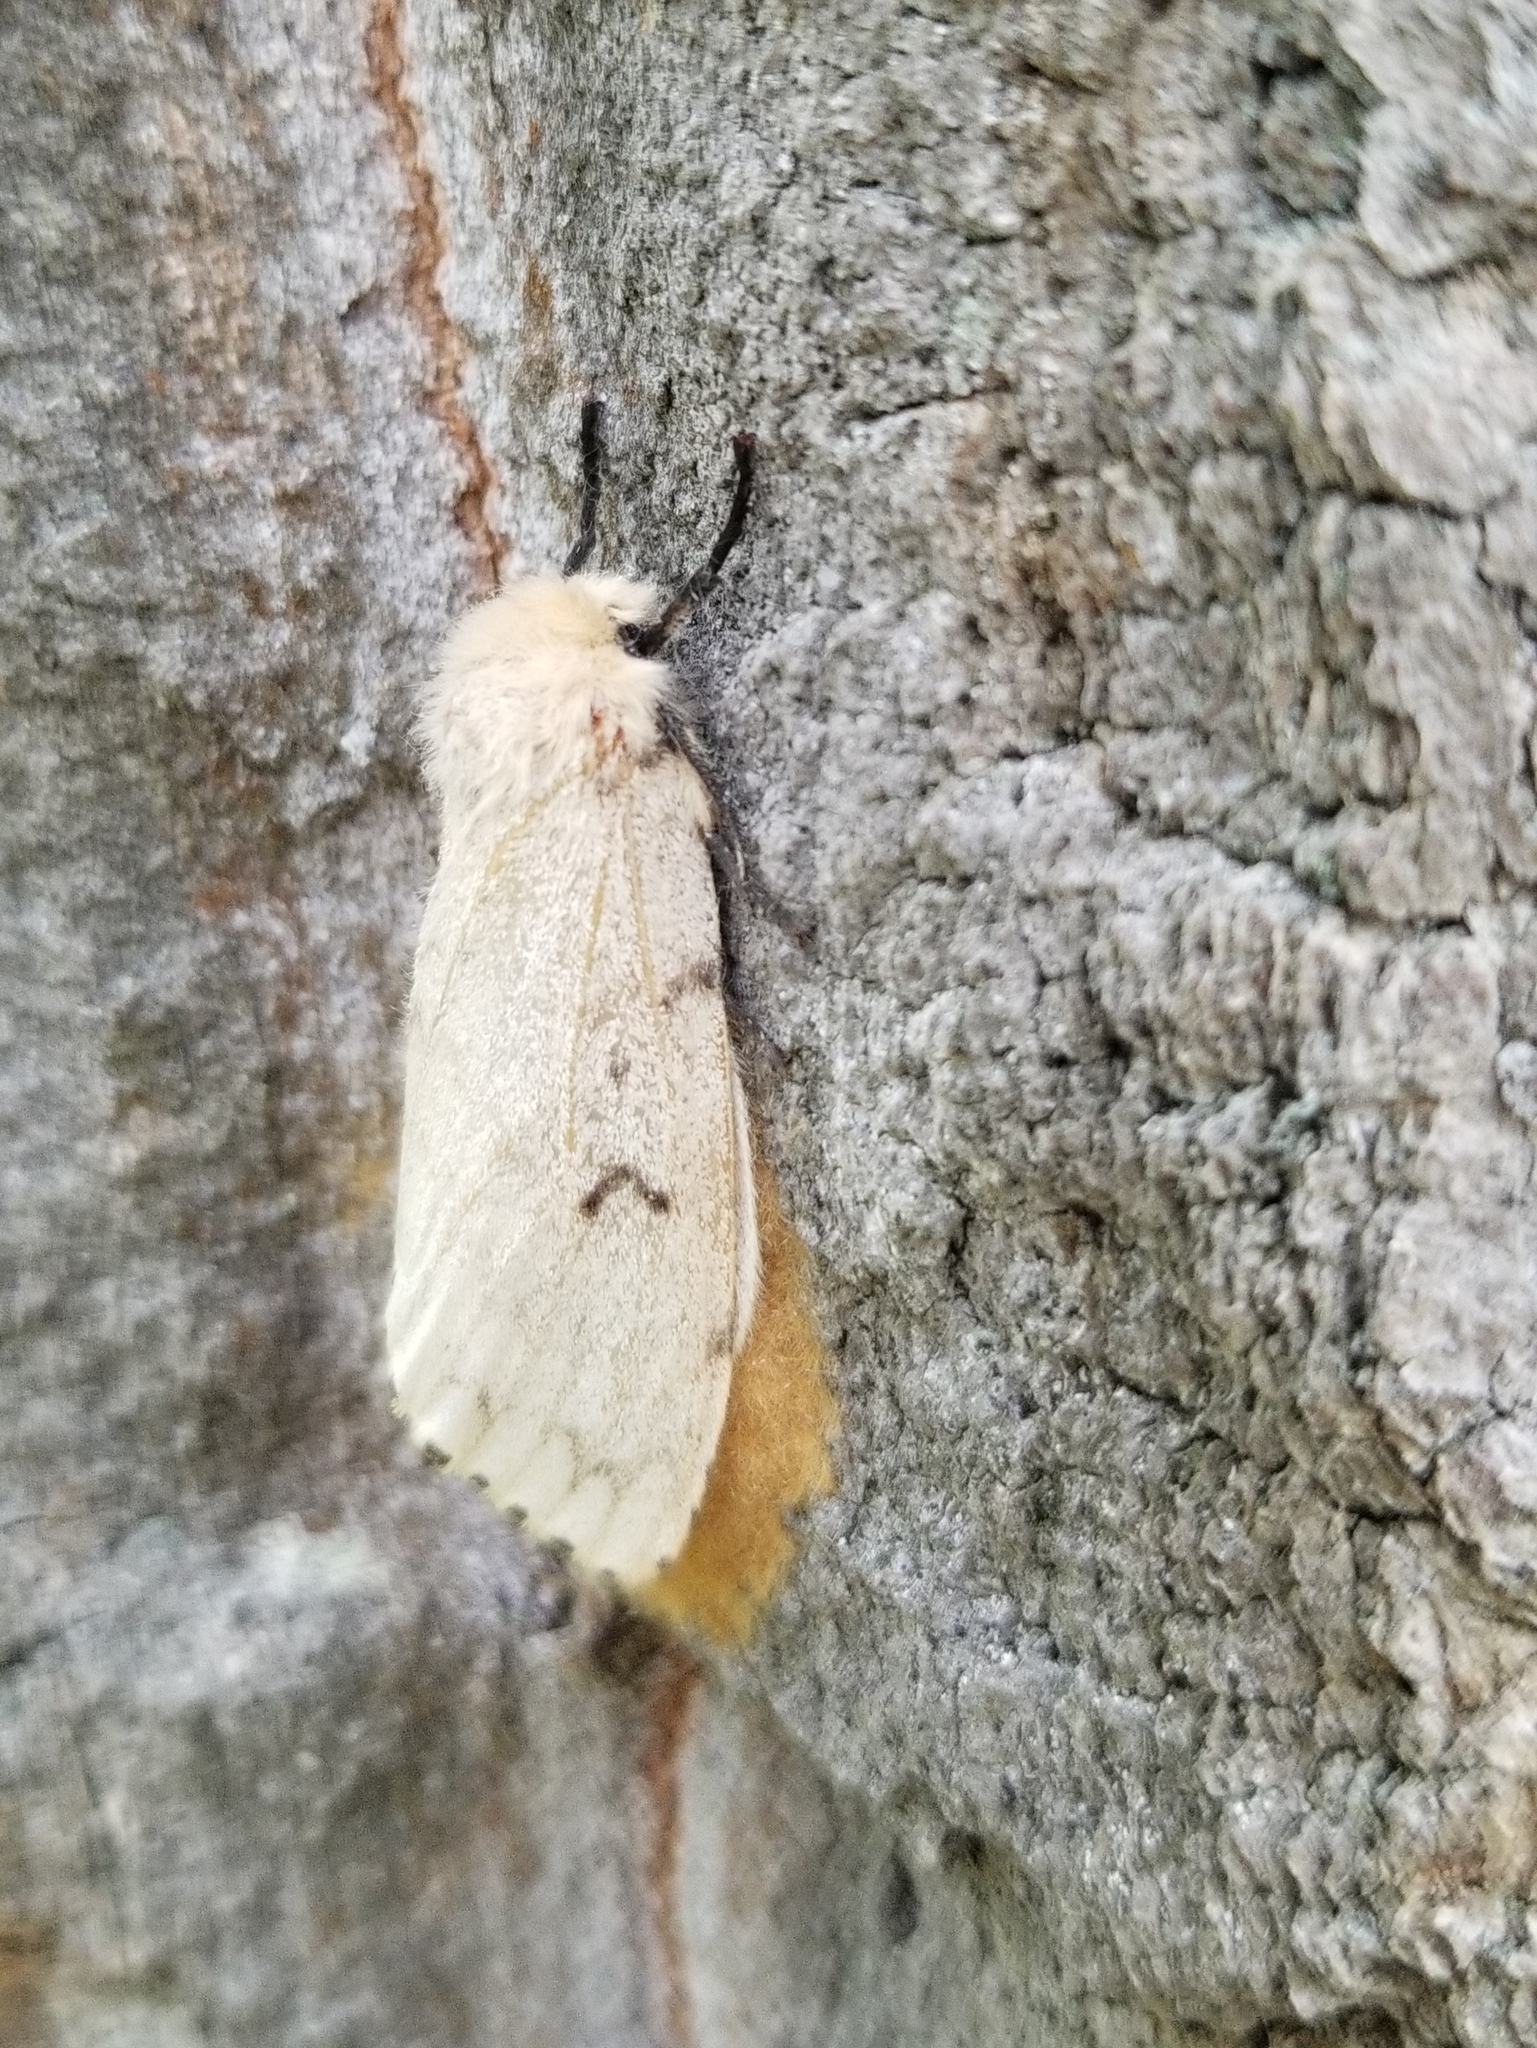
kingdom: Animalia
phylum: Arthropoda
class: Insecta
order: Lepidoptera
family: Erebidae
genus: Lymantria
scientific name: Lymantria dispar
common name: Gypsy moth
